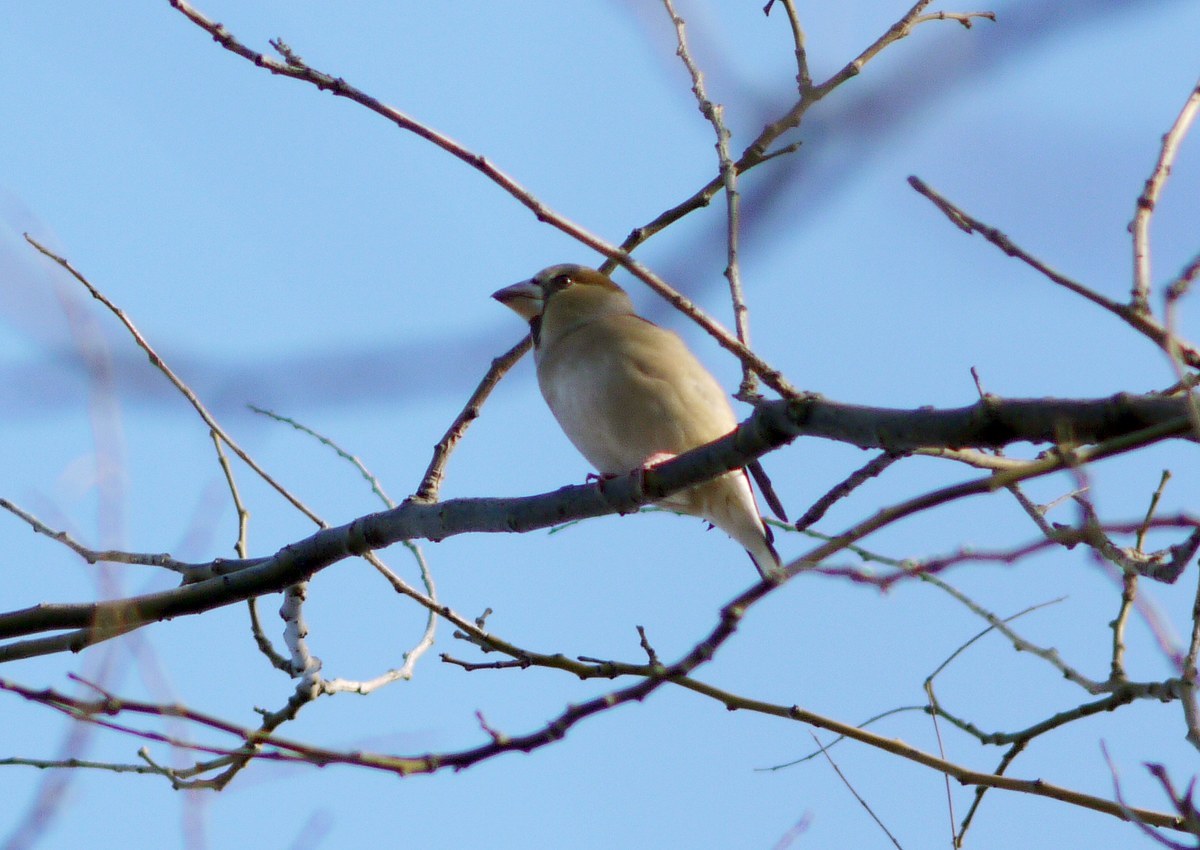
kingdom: Animalia
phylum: Chordata
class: Aves
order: Passeriformes
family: Fringillidae
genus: Coccothraustes
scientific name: Coccothraustes coccothraustes
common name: Hawfinch
